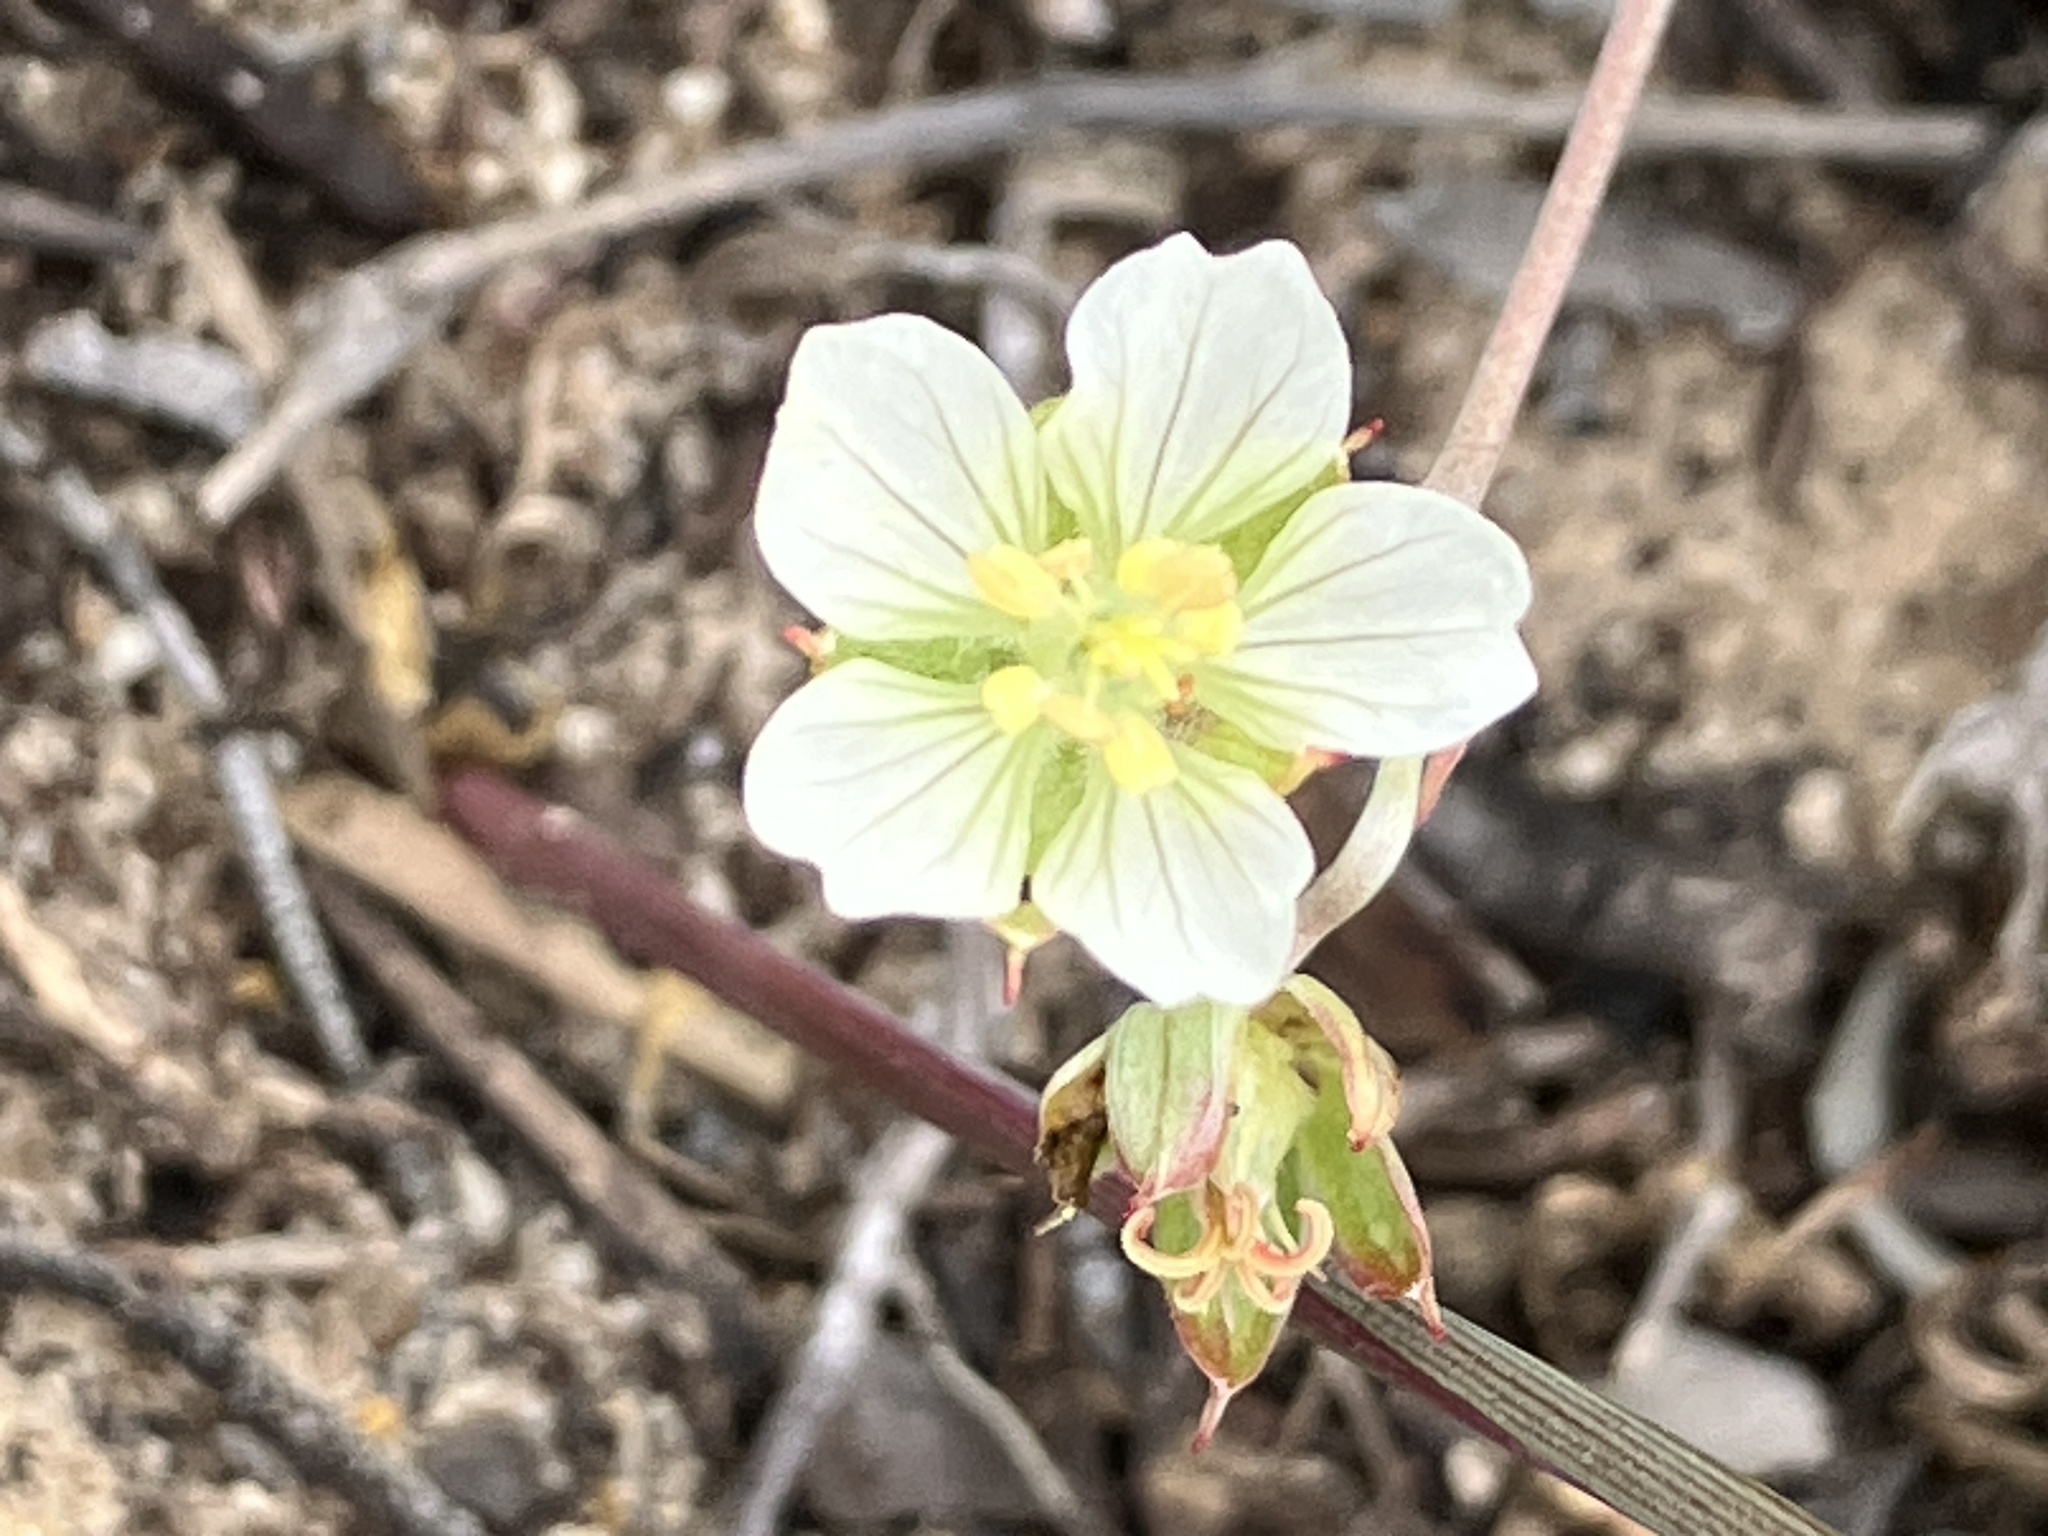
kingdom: Plantae
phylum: Tracheophyta
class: Magnoliopsida
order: Geraniales
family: Geraniaceae
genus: Geranium
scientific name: Geranium incanum
